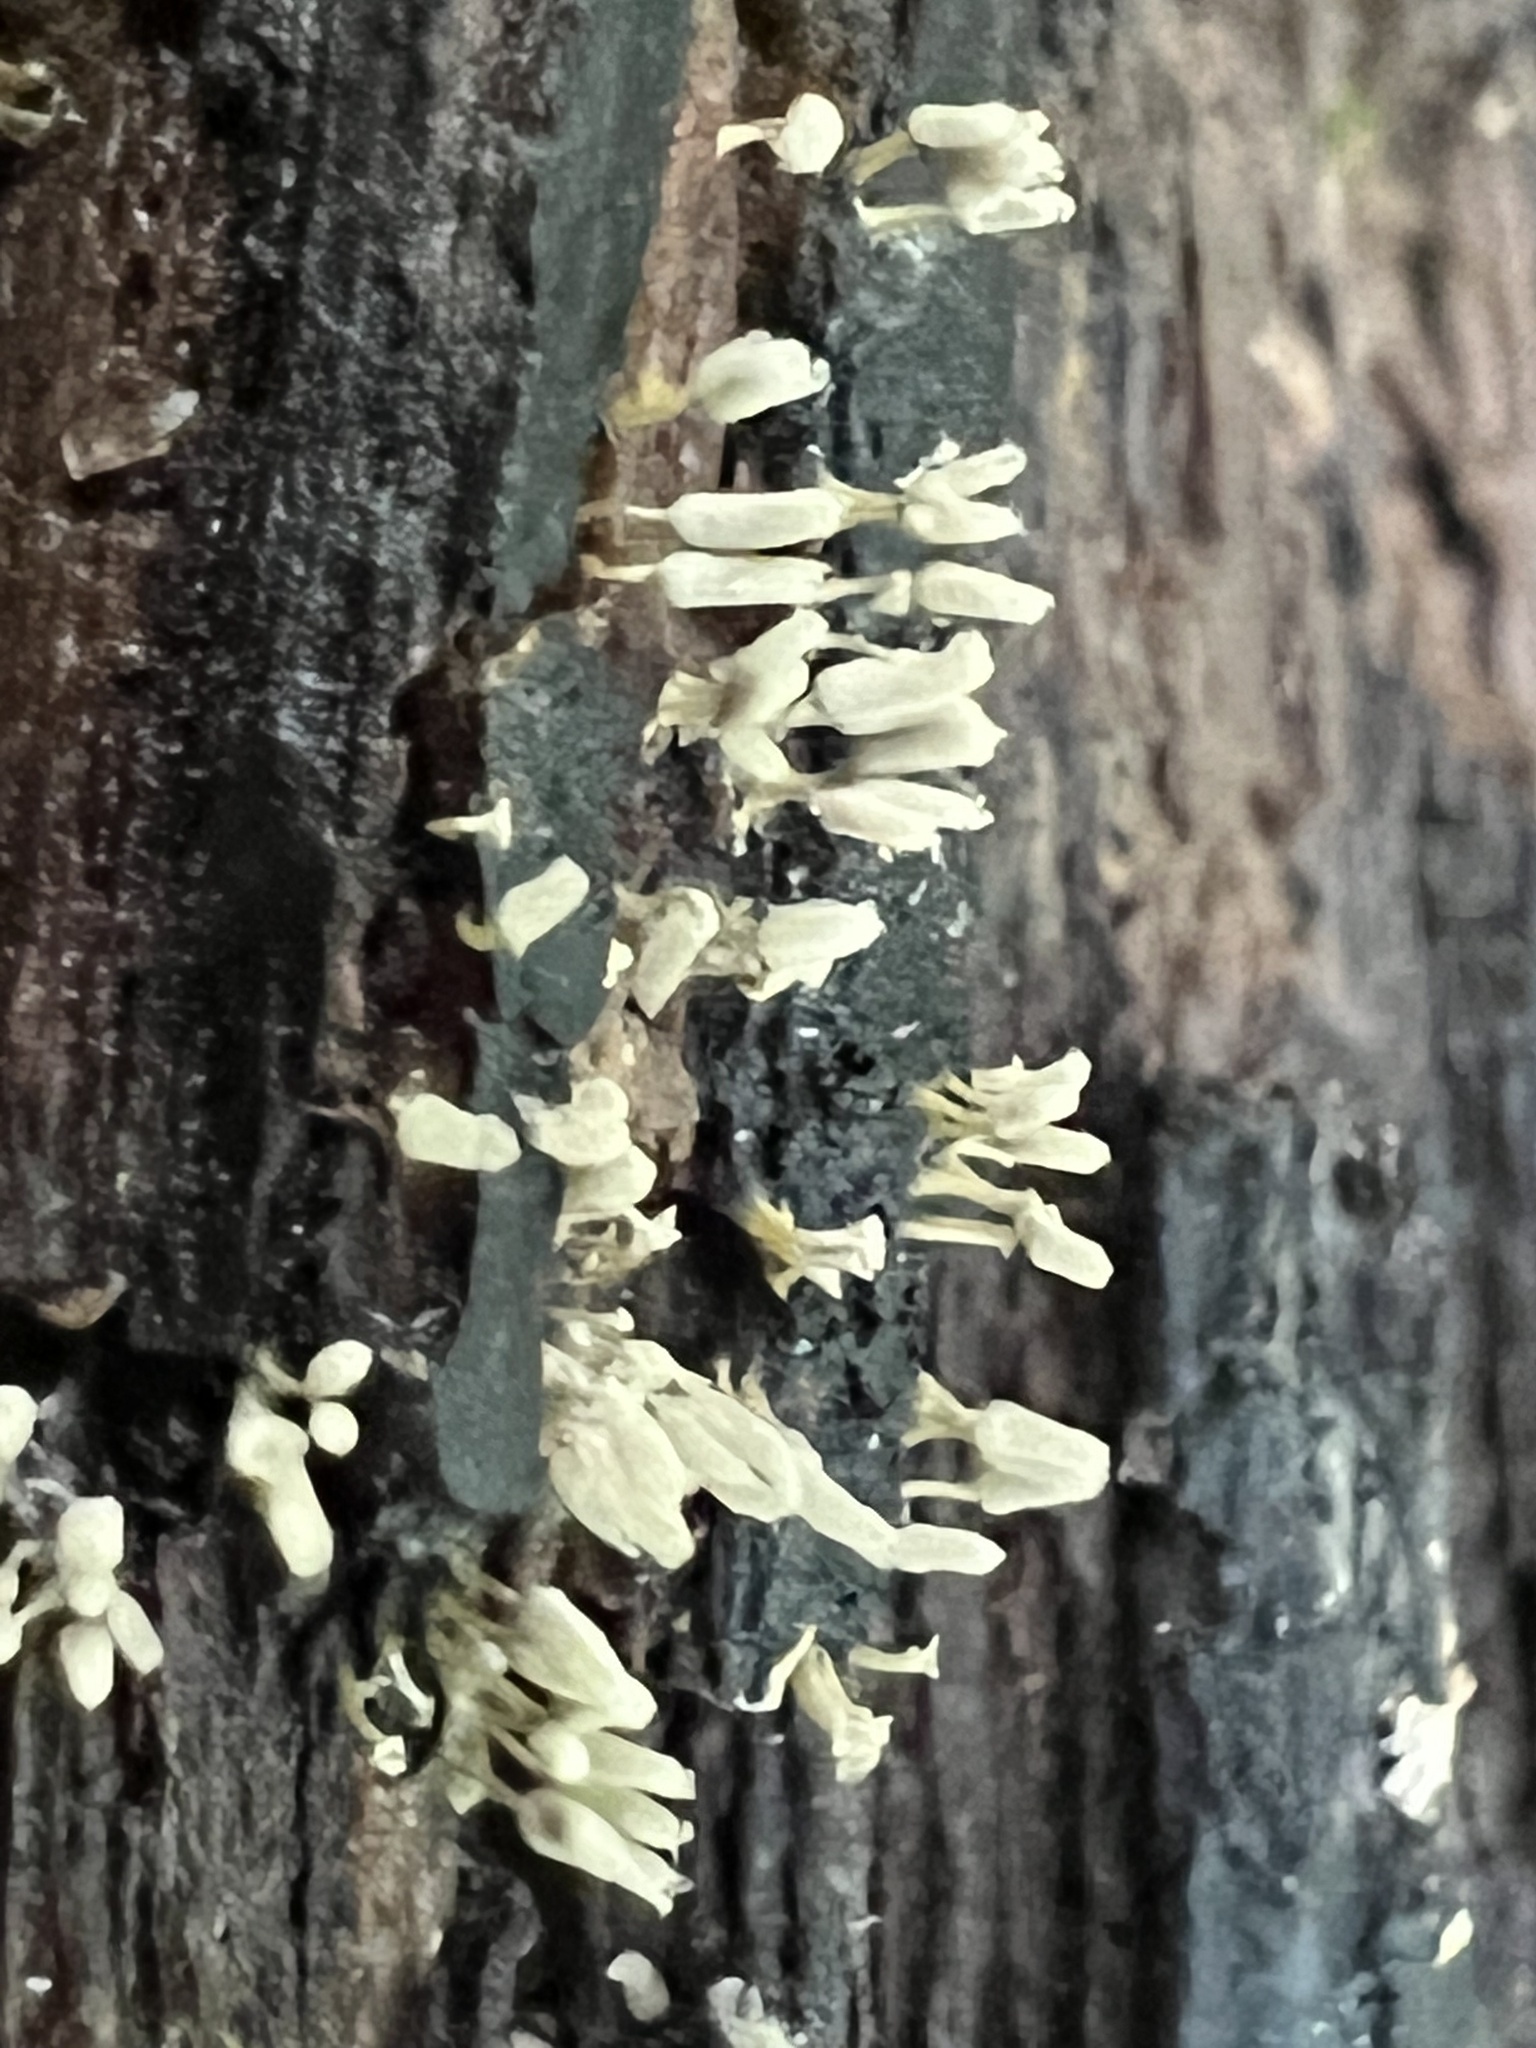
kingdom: Protozoa
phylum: Mycetozoa
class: Myxomycetes
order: Trichiales
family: Arcyriaceae
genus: Arcyria
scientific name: Arcyria cinerea
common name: White carnival candy slime mold
